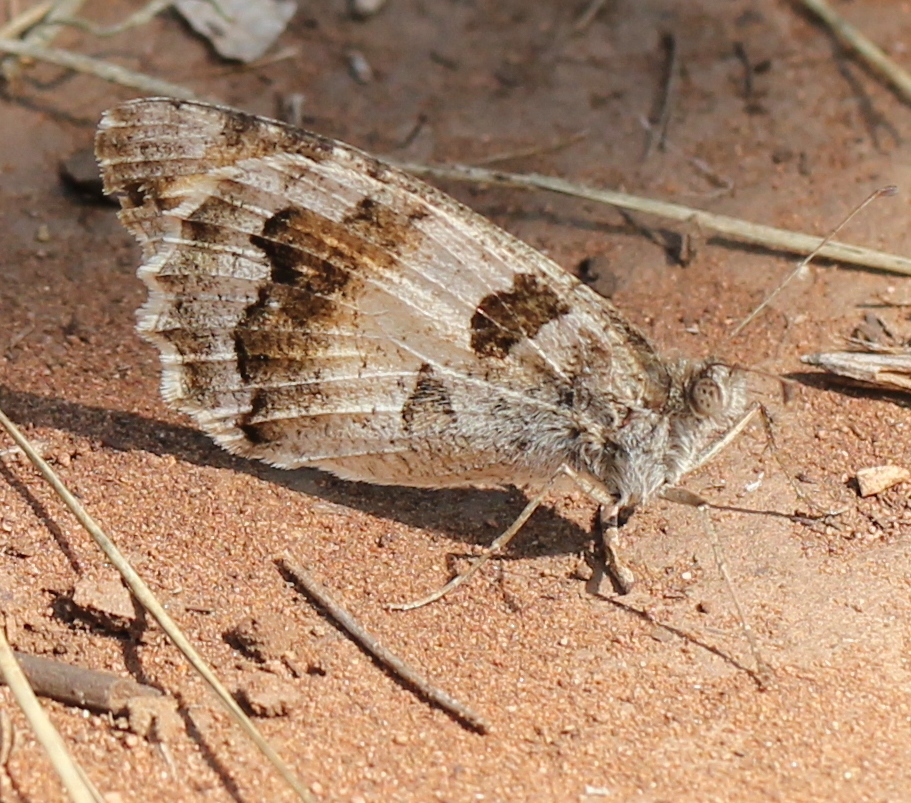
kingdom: Animalia
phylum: Arthropoda
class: Insecta
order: Lepidoptera
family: Nymphalidae
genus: Satyrus
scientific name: Satyrus briseis
